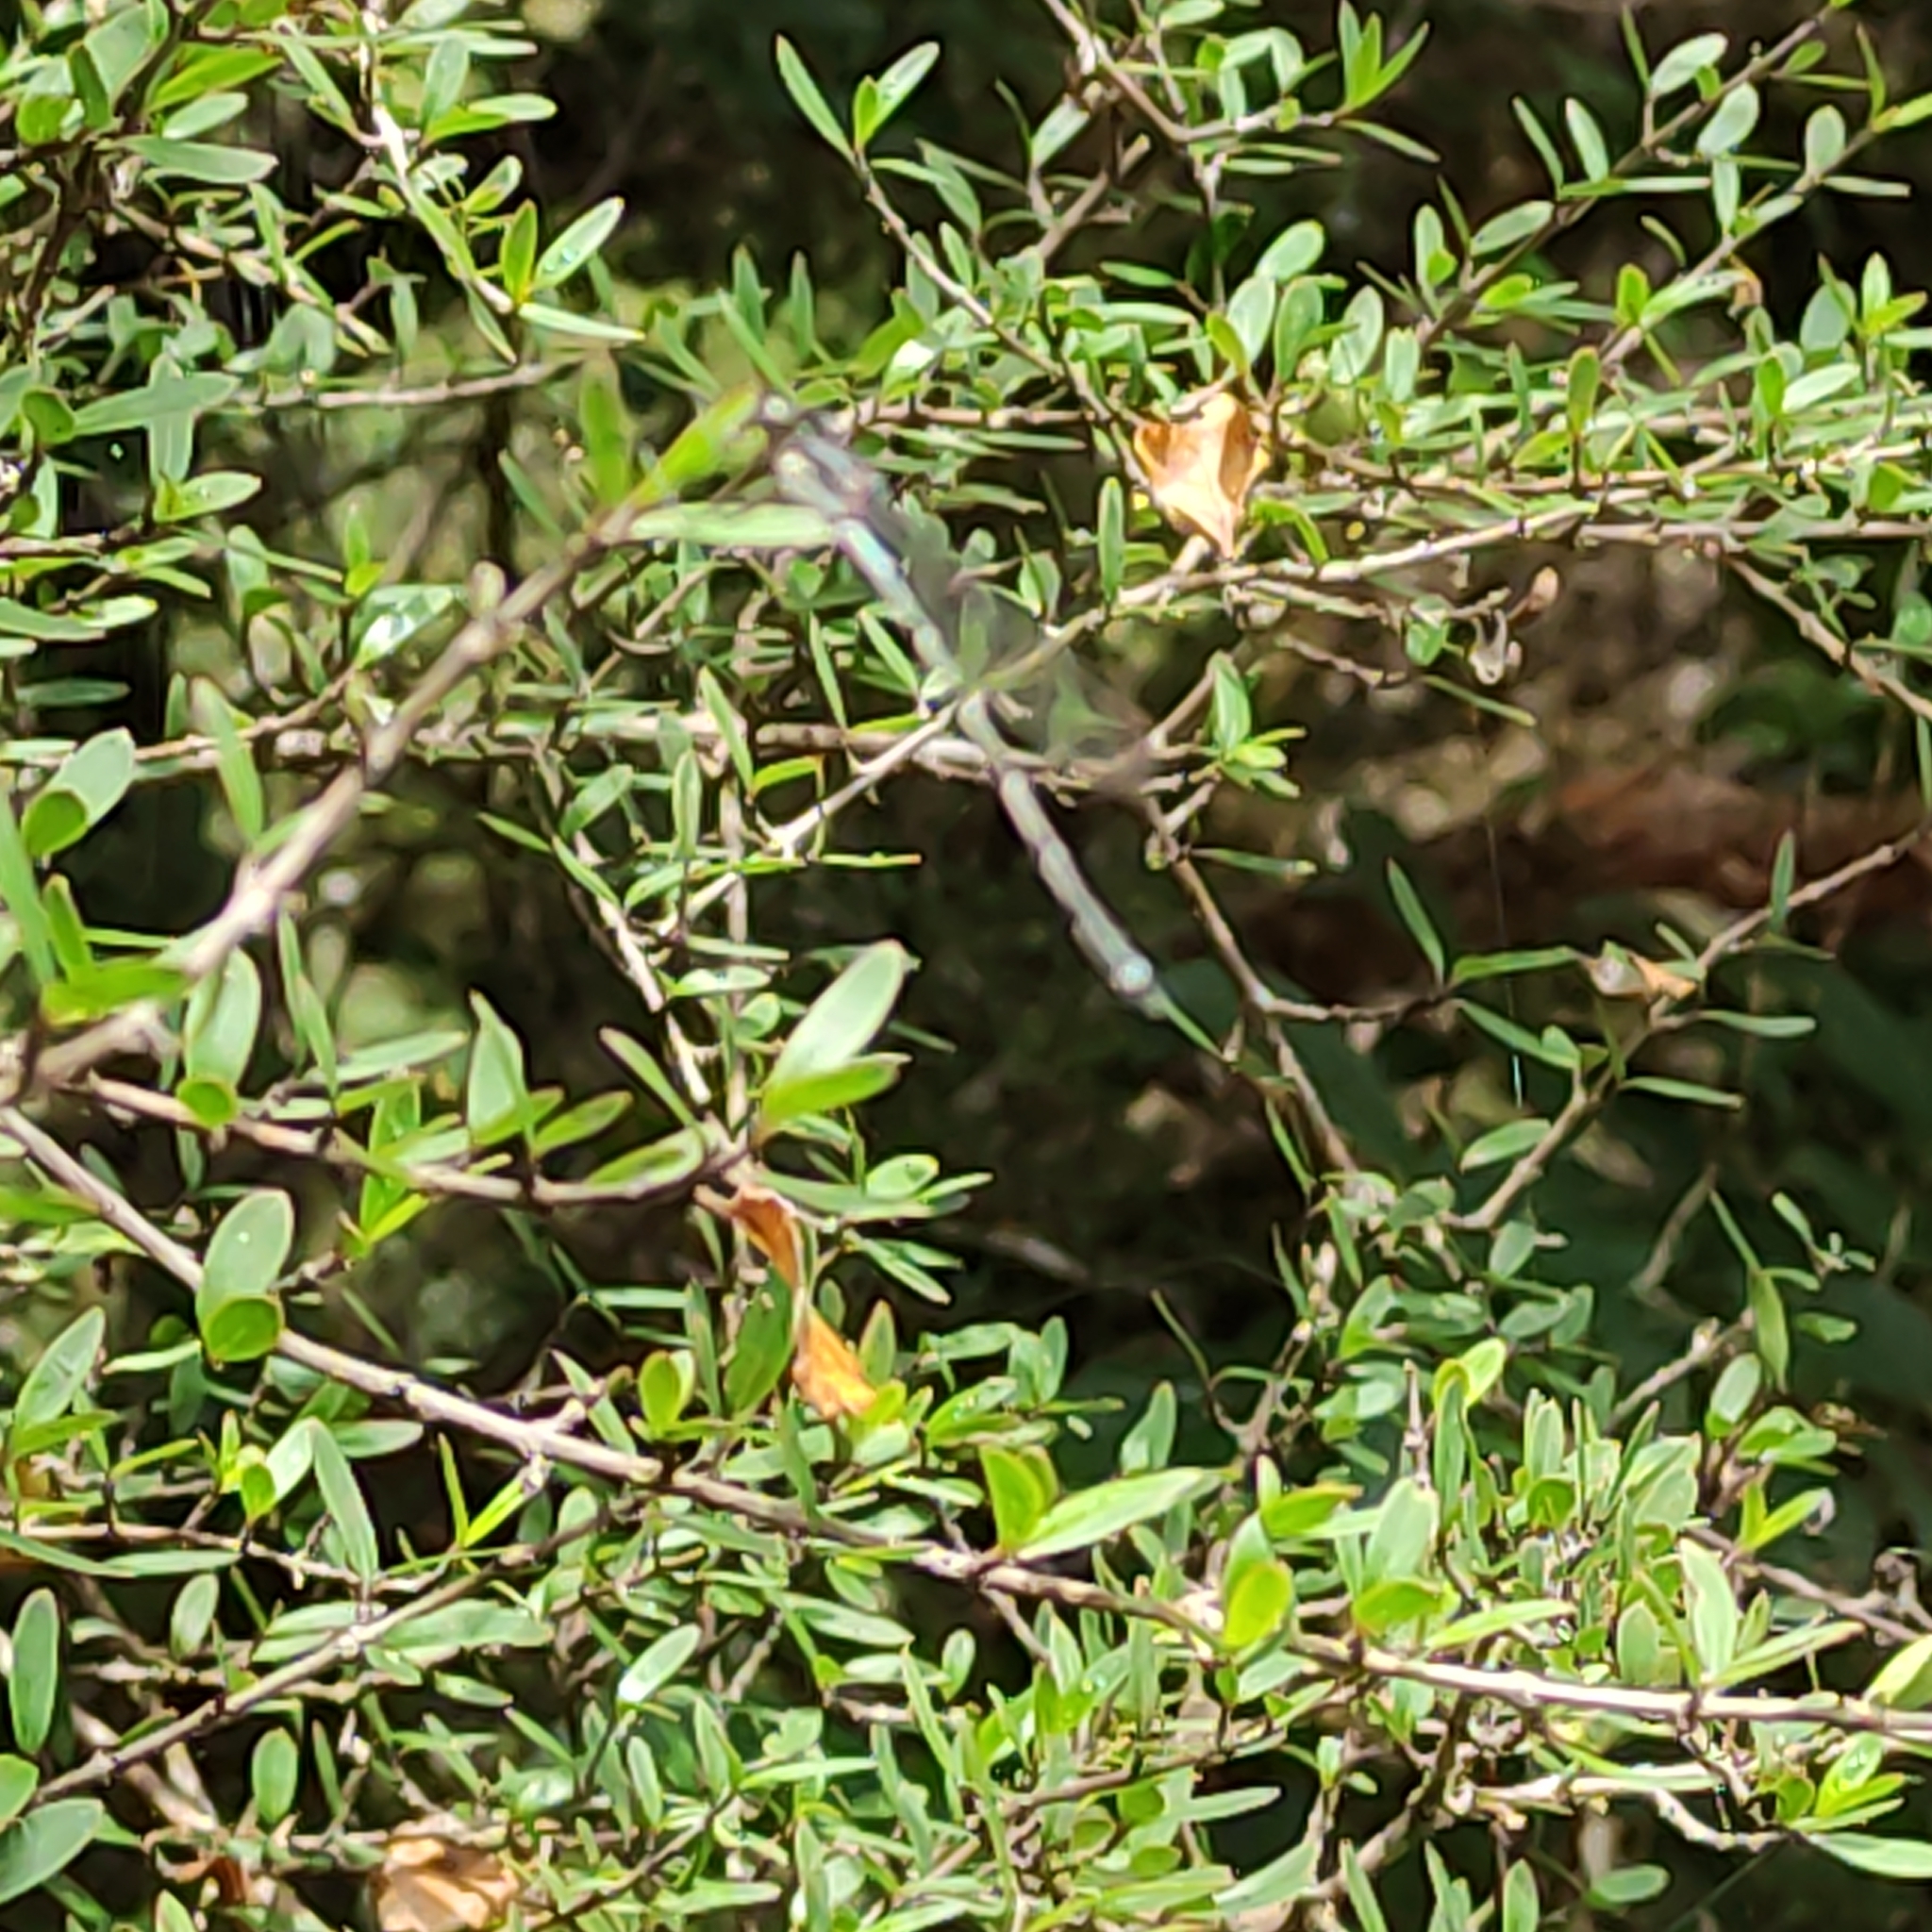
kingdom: Animalia
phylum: Arthropoda
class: Insecta
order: Odonata
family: Lestidae
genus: Austrolestes
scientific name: Austrolestes colensonis
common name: Blue damselfly
